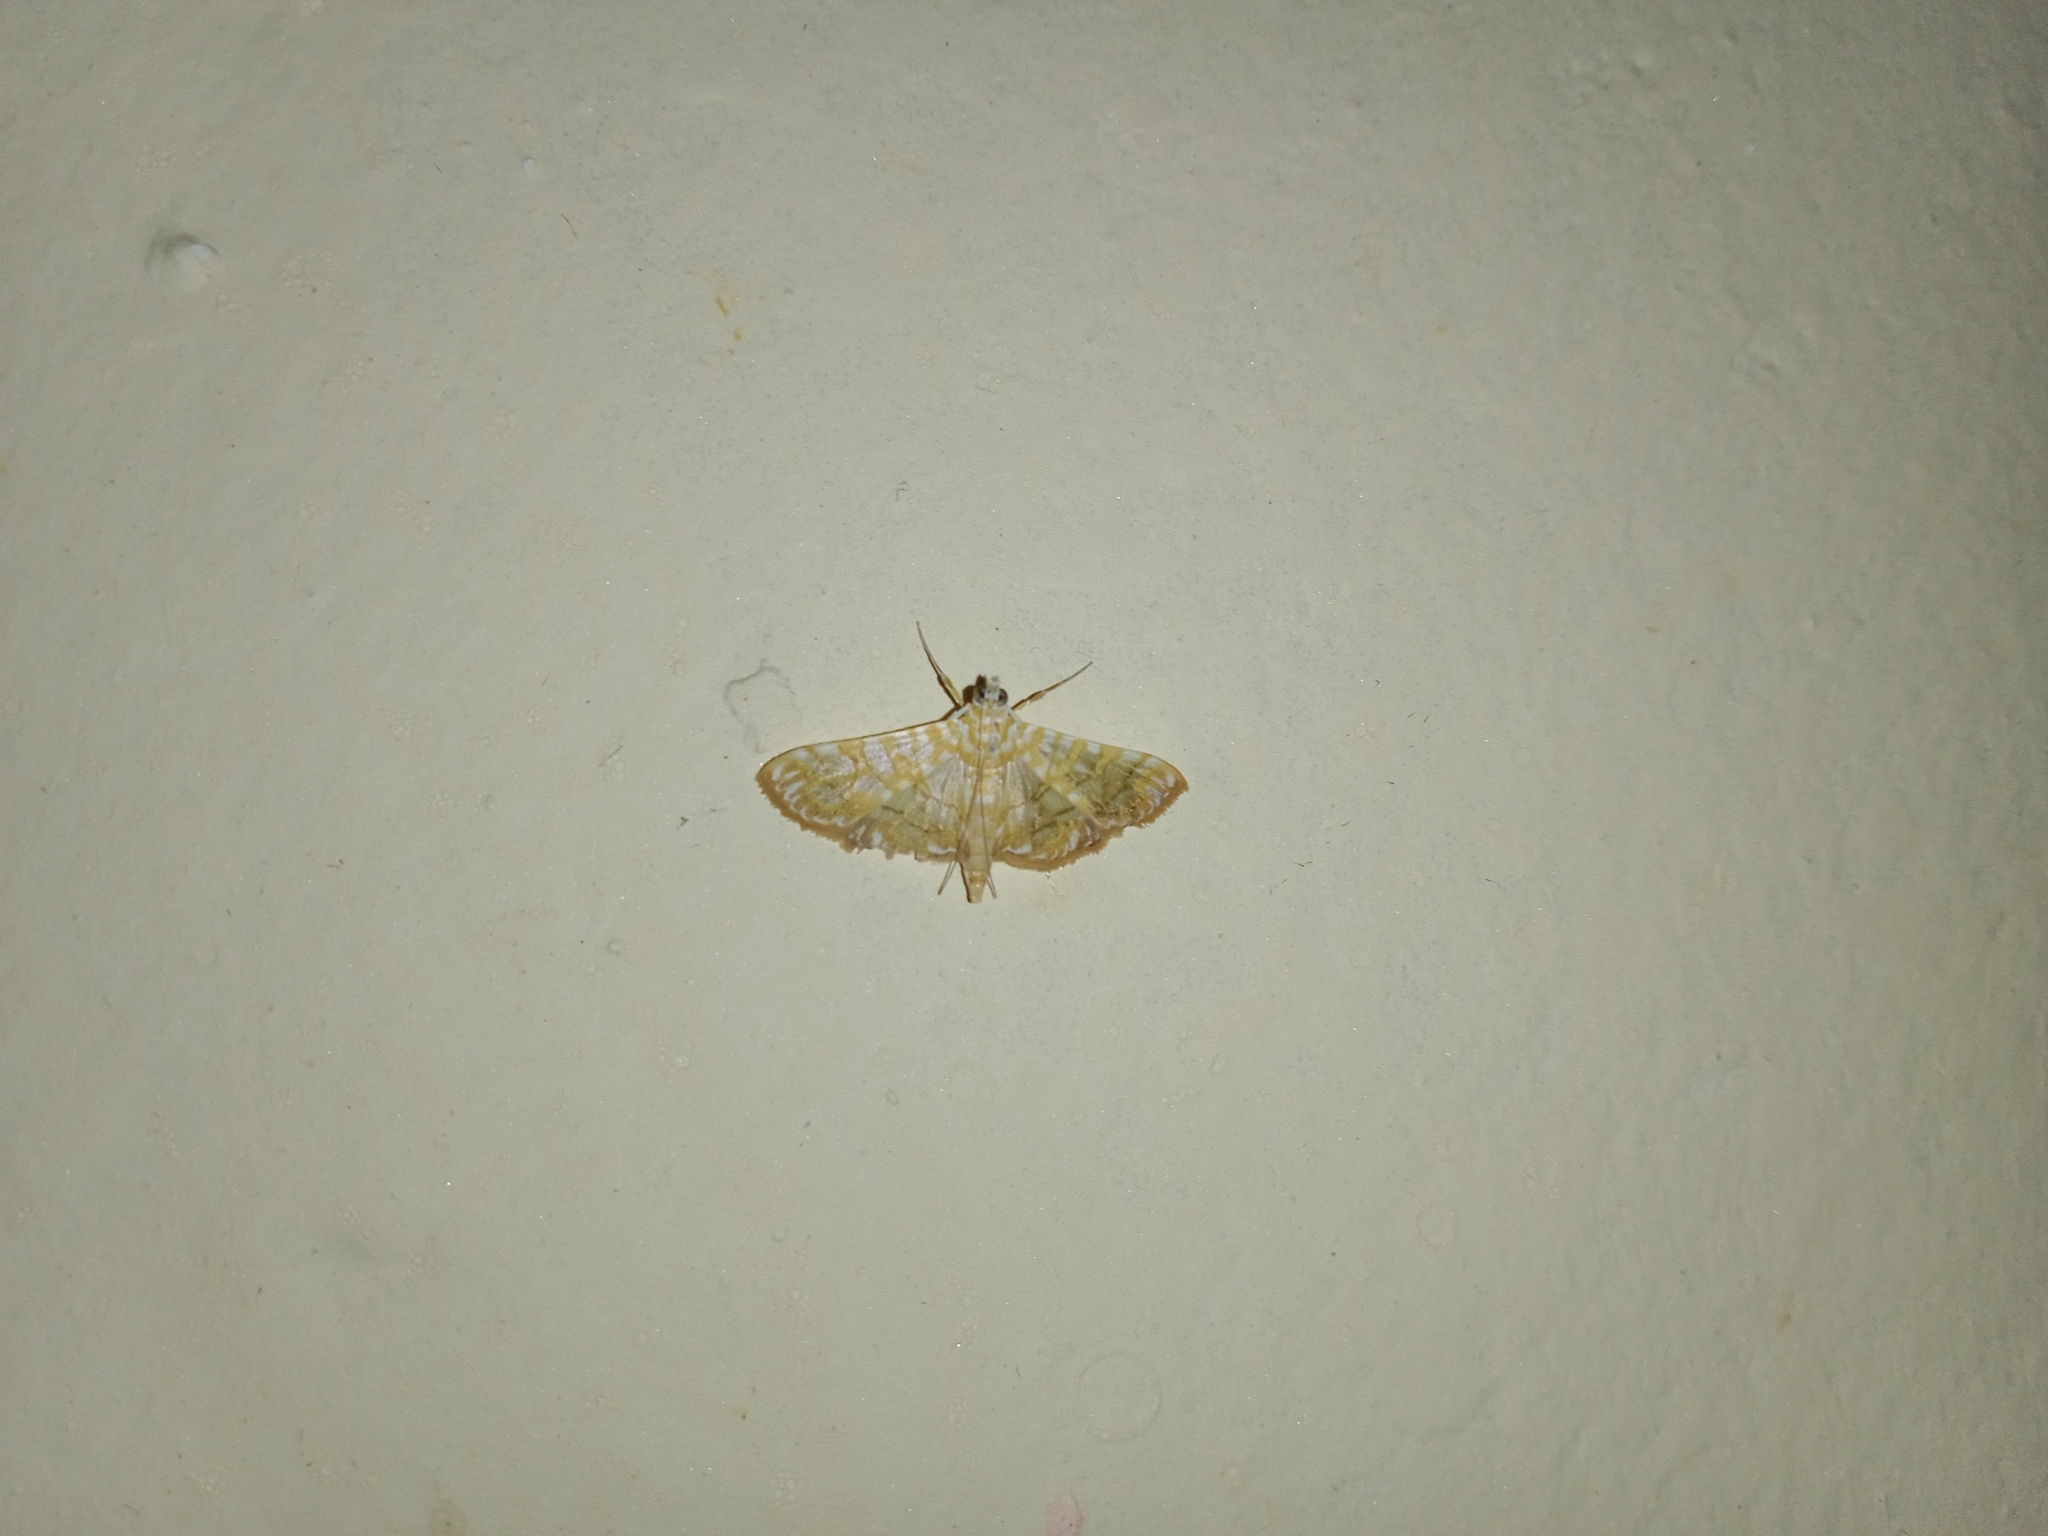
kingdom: Animalia
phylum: Arthropoda
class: Insecta
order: Lepidoptera
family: Crambidae
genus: Synclera
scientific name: Synclera traducalis
